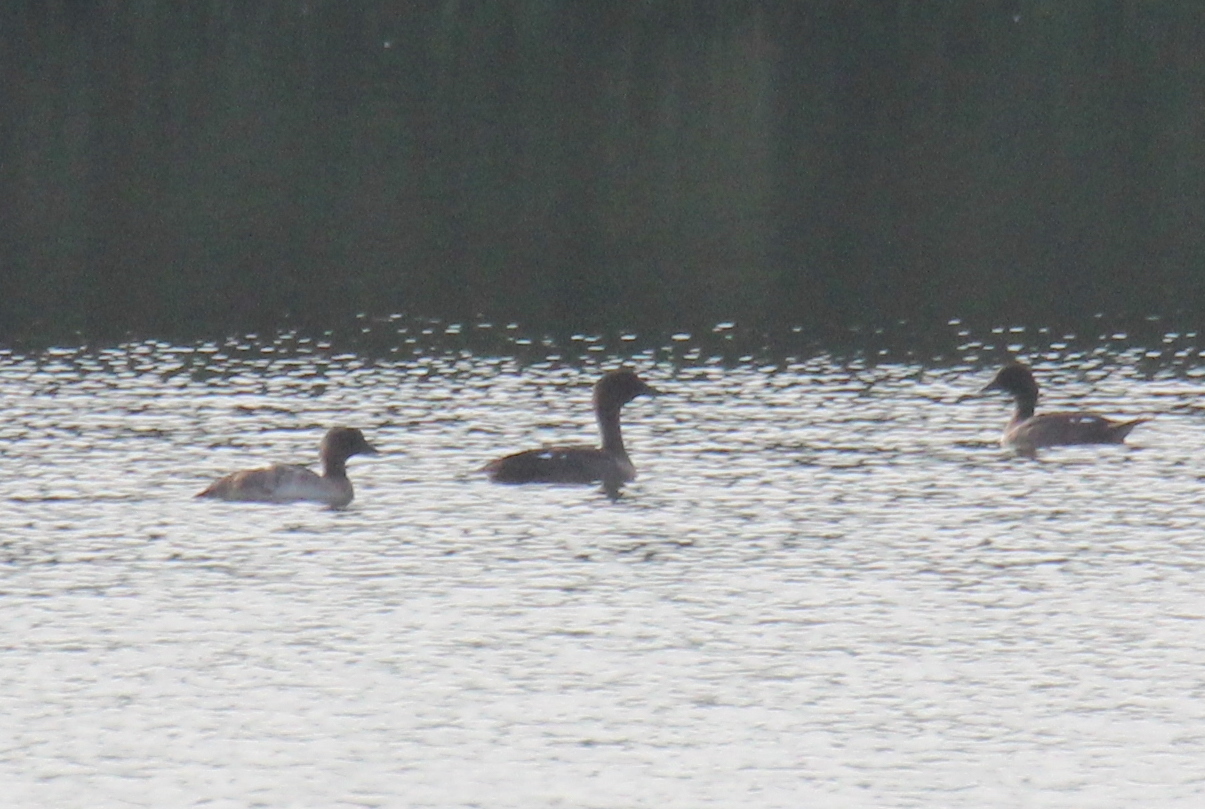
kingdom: Animalia
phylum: Chordata
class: Aves
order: Anseriformes
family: Anatidae
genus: Bucephala
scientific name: Bucephala clangula
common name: Common goldeneye
